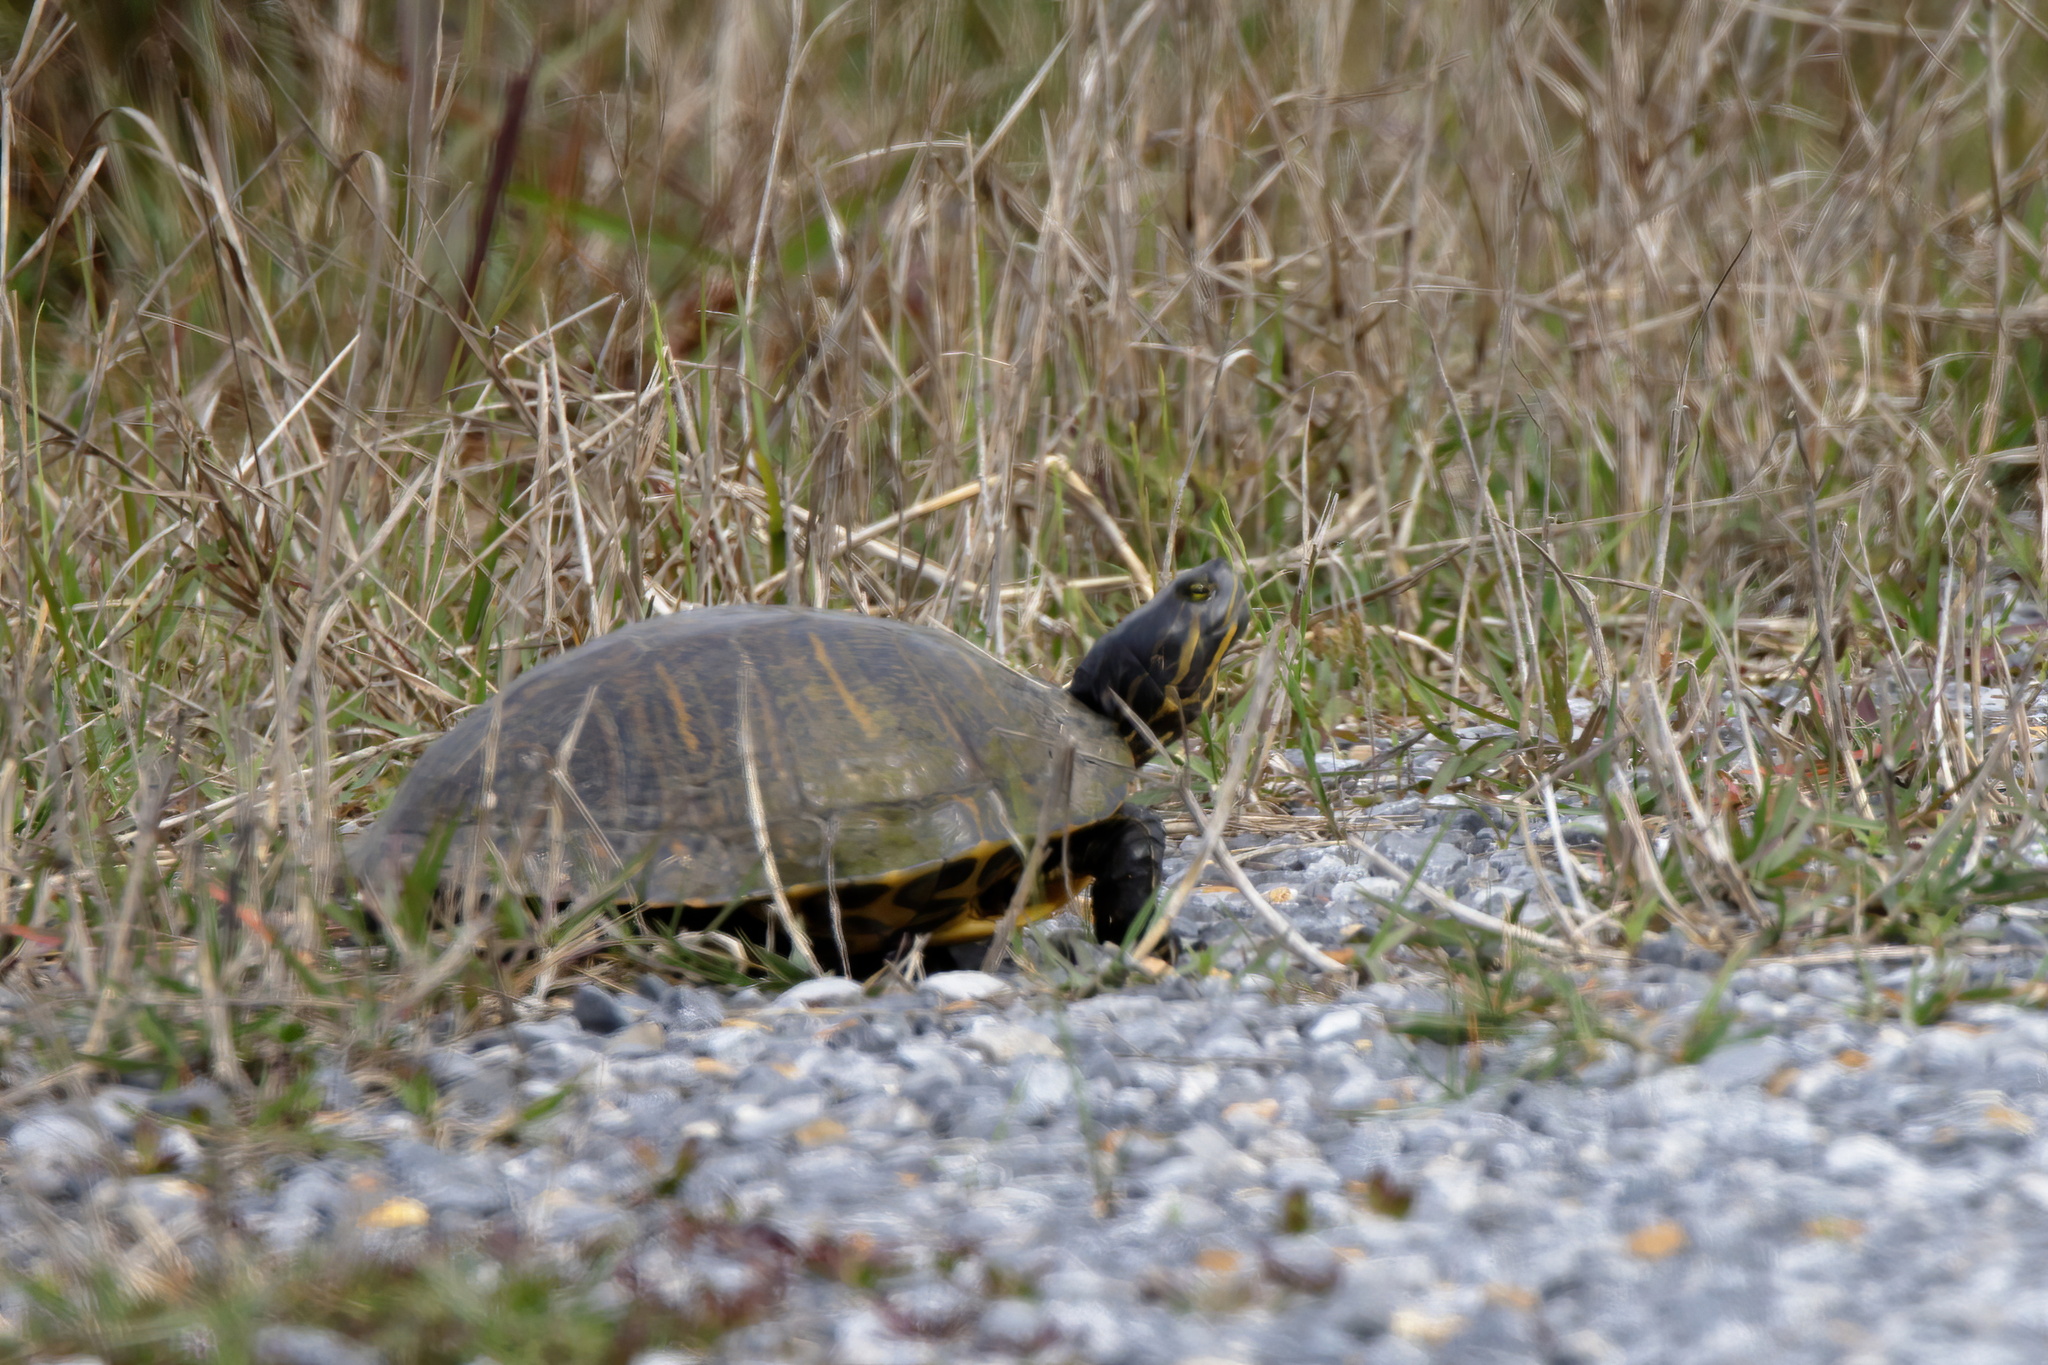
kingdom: Animalia
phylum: Chordata
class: Testudines
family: Emydidae
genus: Trachemys
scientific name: Trachemys scripta
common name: Slider
